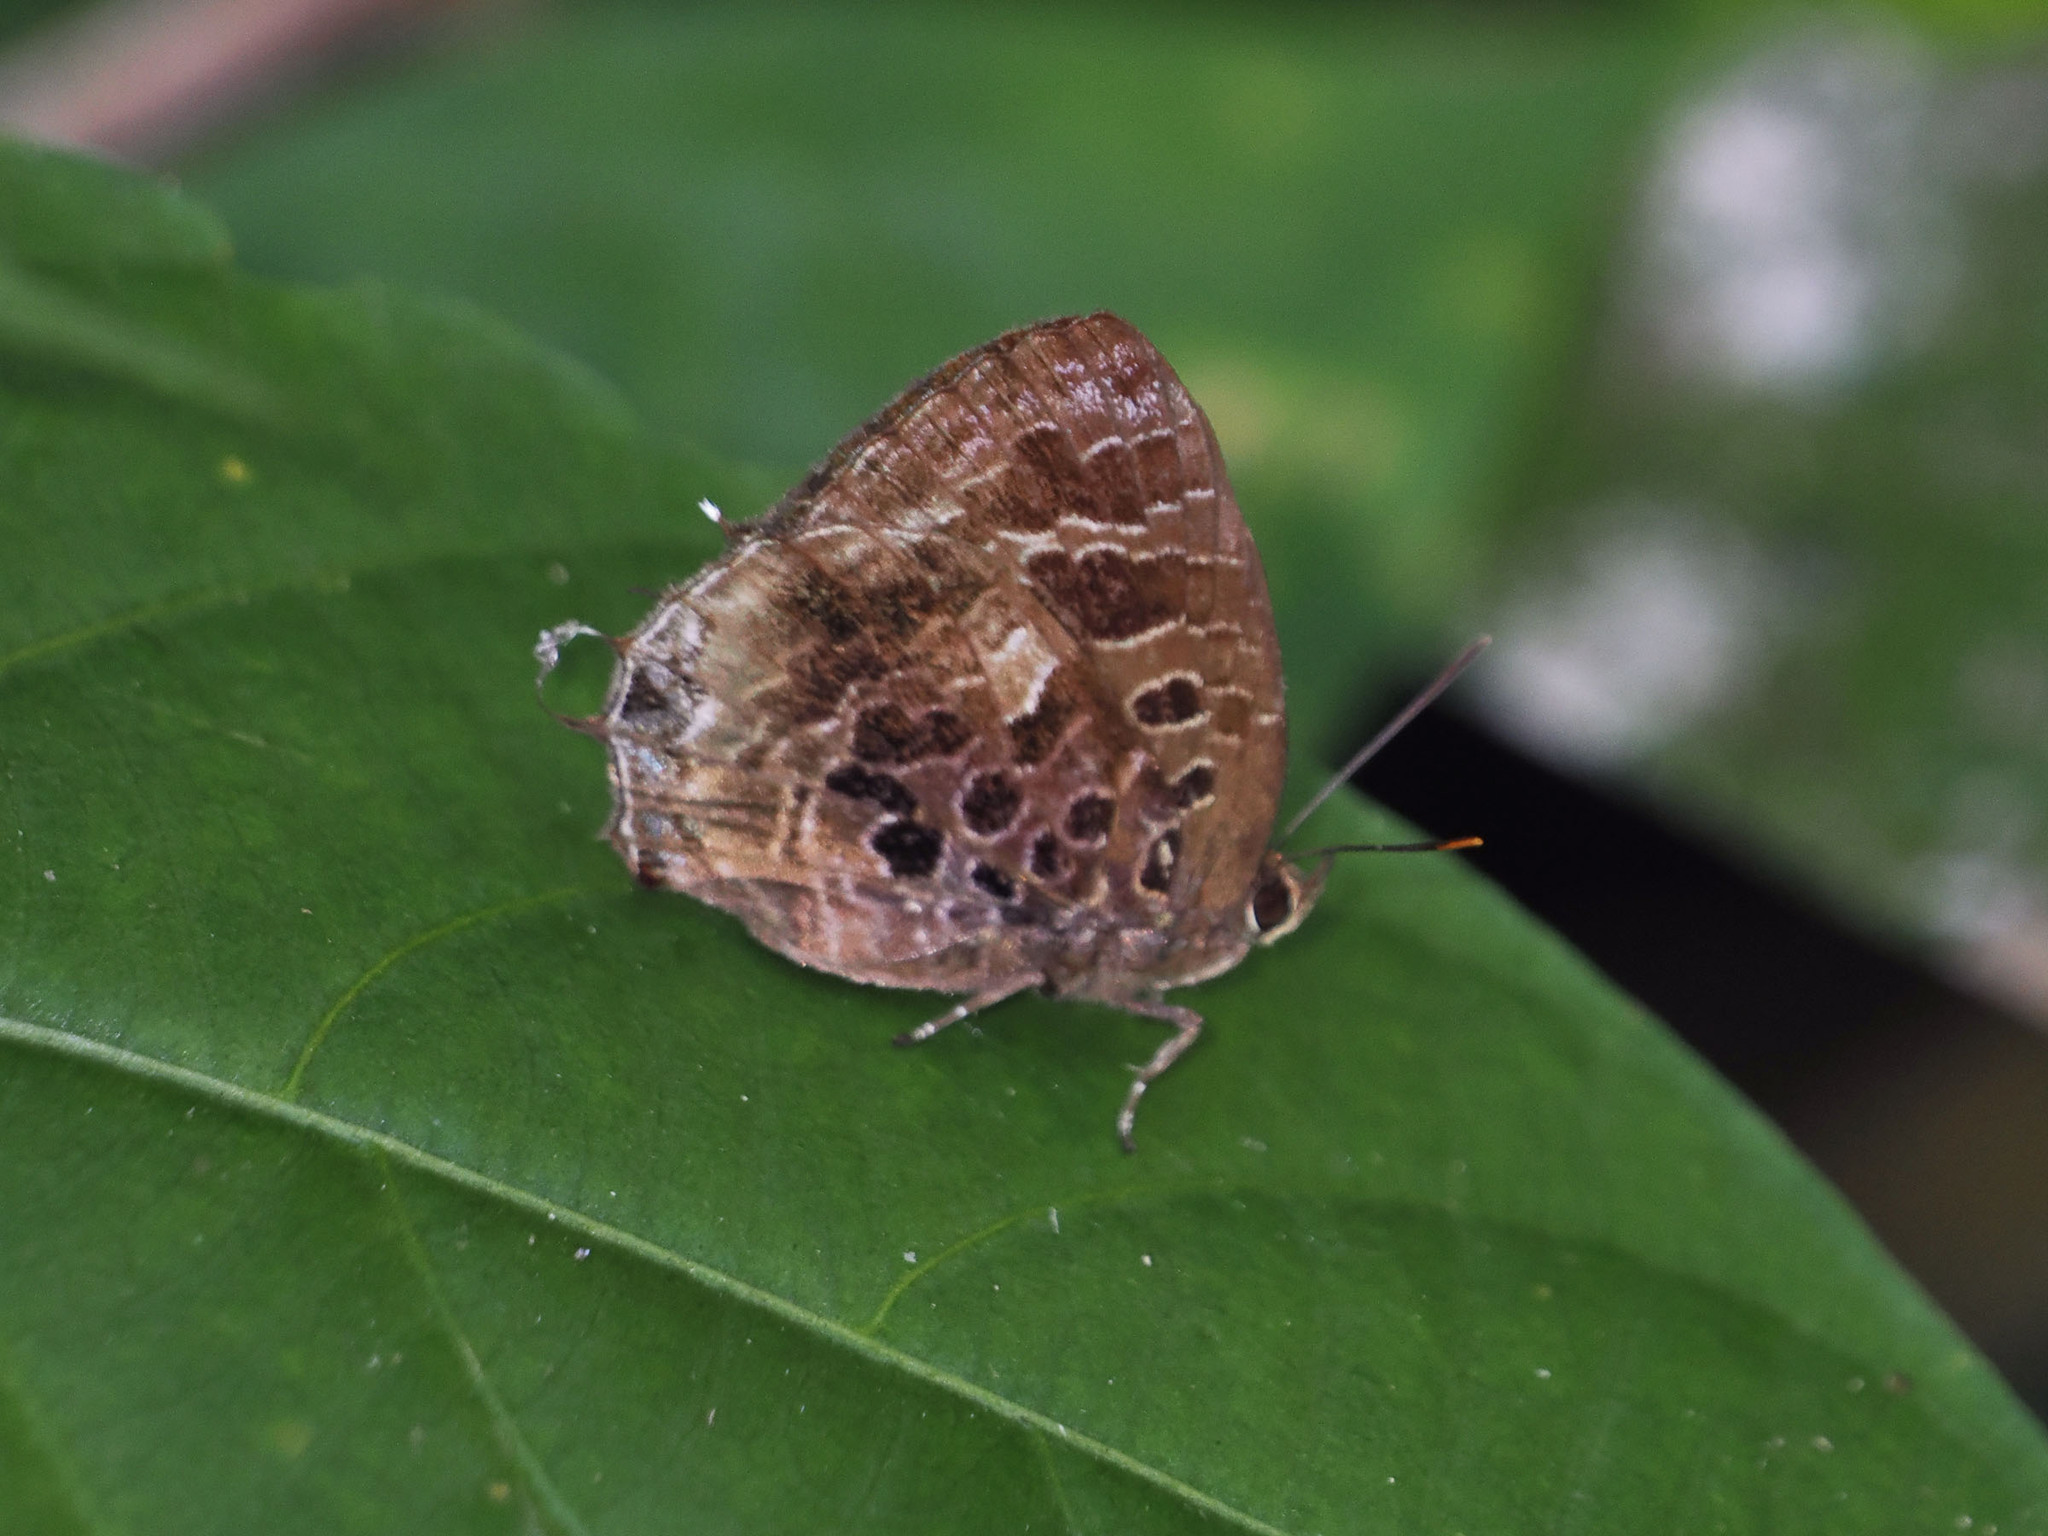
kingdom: Animalia
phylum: Arthropoda
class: Insecta
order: Lepidoptera
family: Lycaenidae
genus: Arhopala
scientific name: Arhopala abseus
